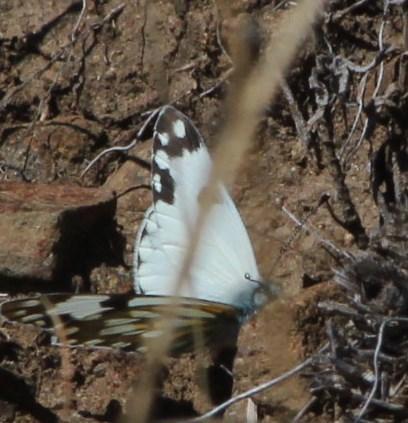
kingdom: Animalia
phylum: Arthropoda
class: Insecta
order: Lepidoptera
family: Pieridae
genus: Pontia
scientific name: Pontia helice
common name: Meadow white
